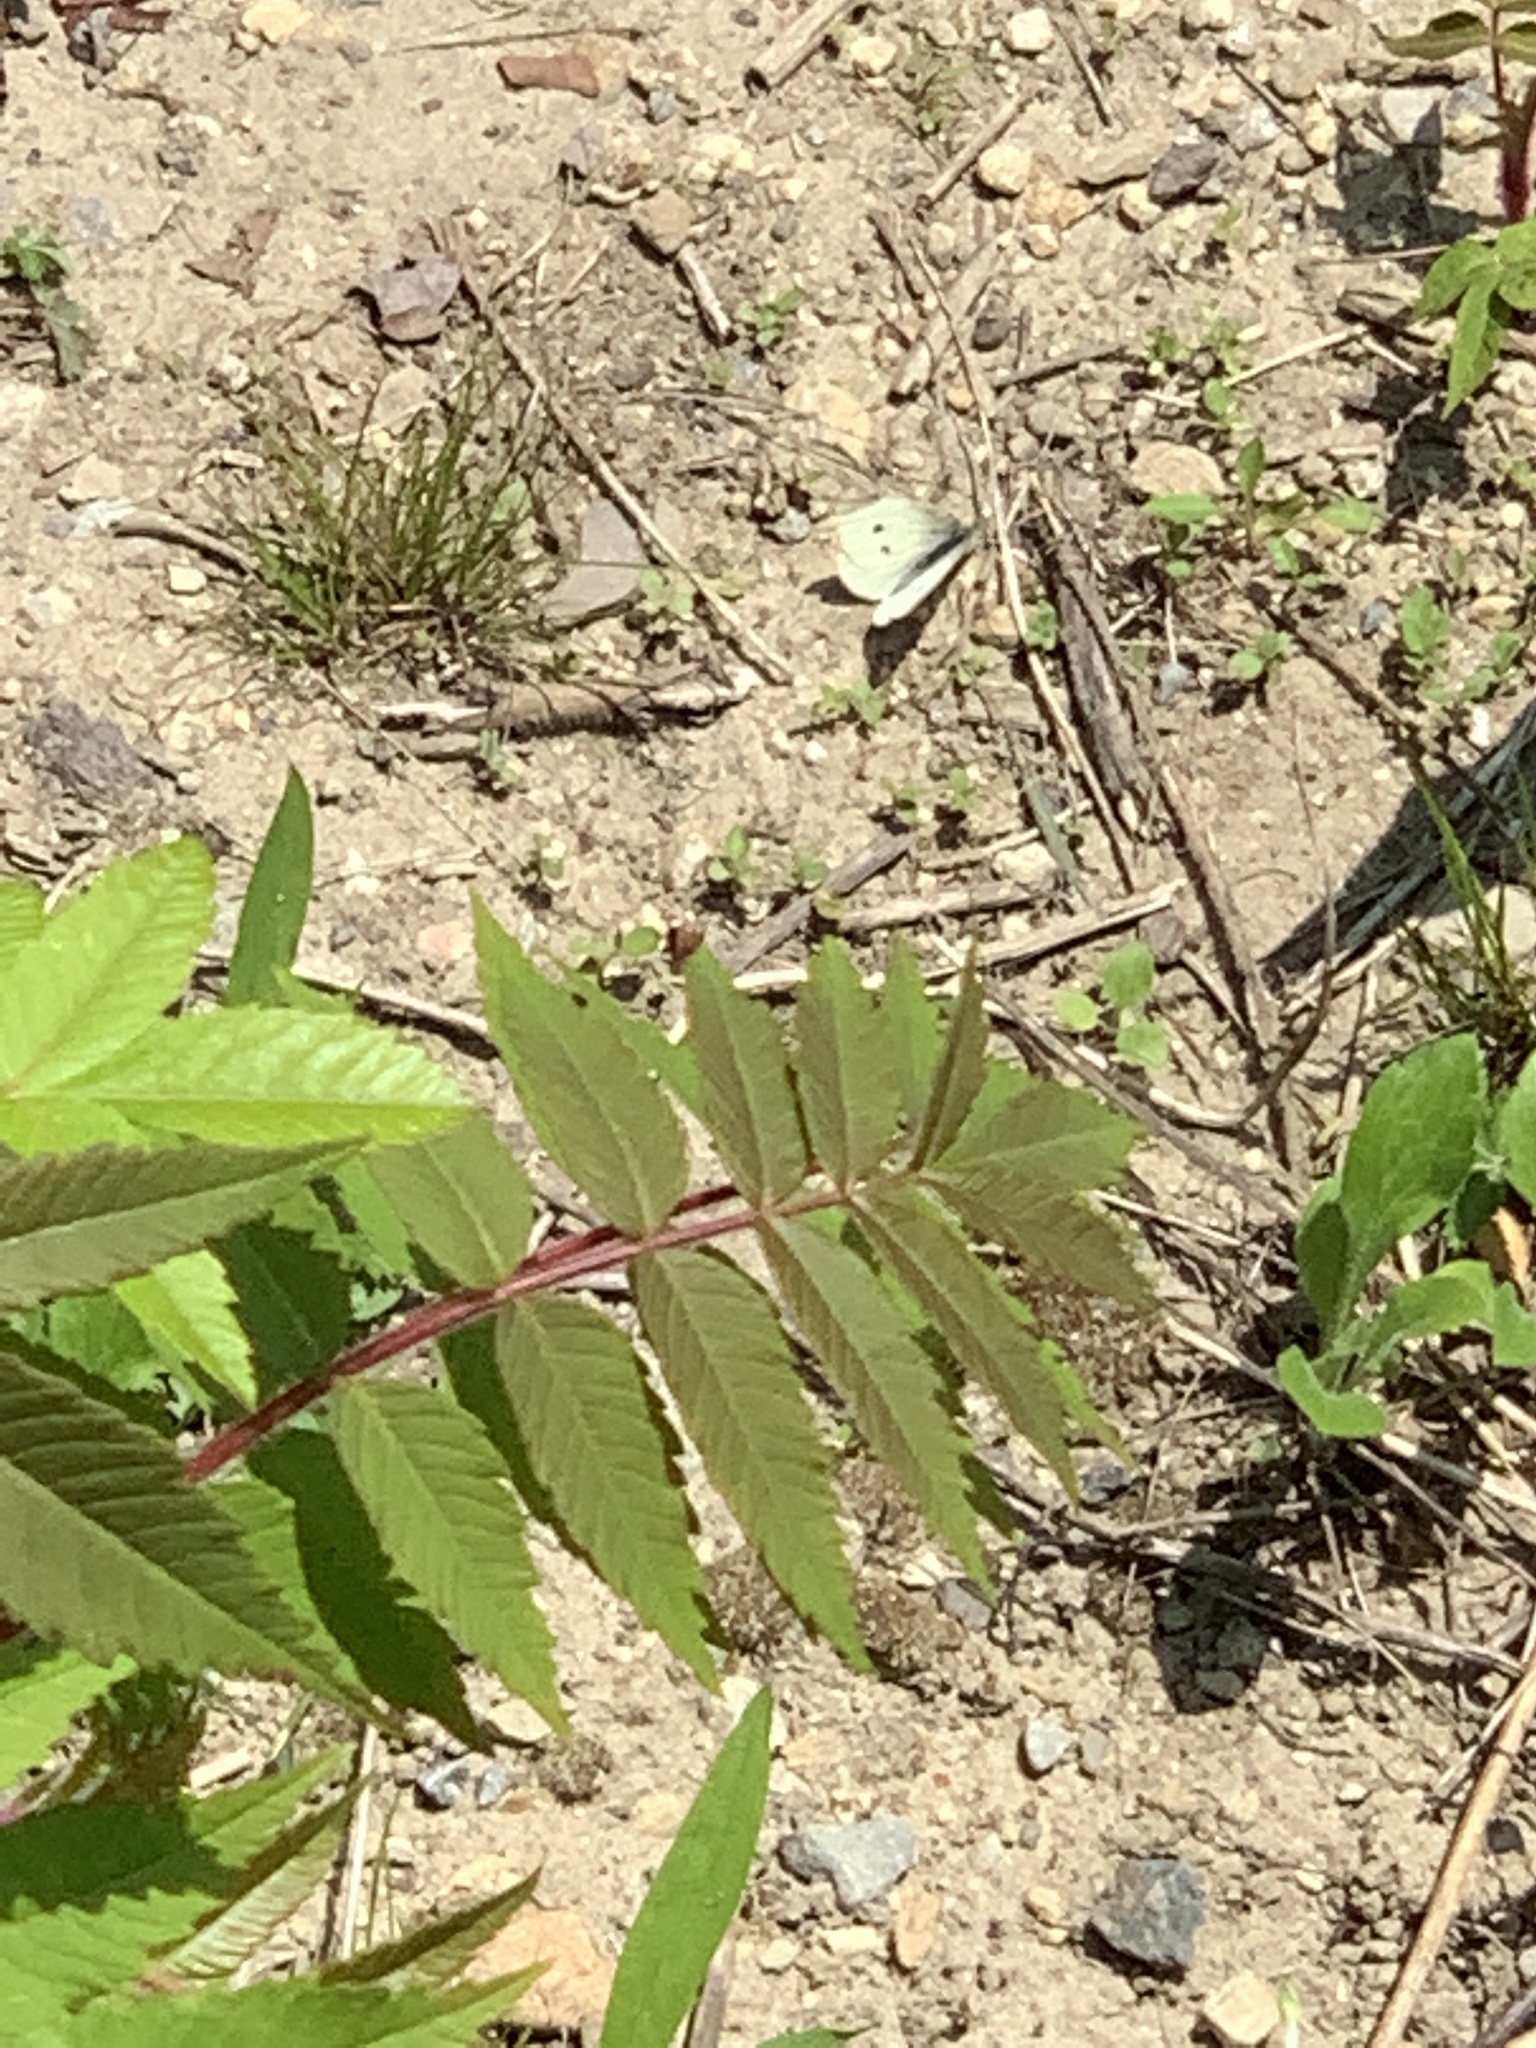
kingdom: Animalia
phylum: Arthropoda
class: Insecta
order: Lepidoptera
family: Pieridae
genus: Pieris
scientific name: Pieris rapae
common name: Small white
